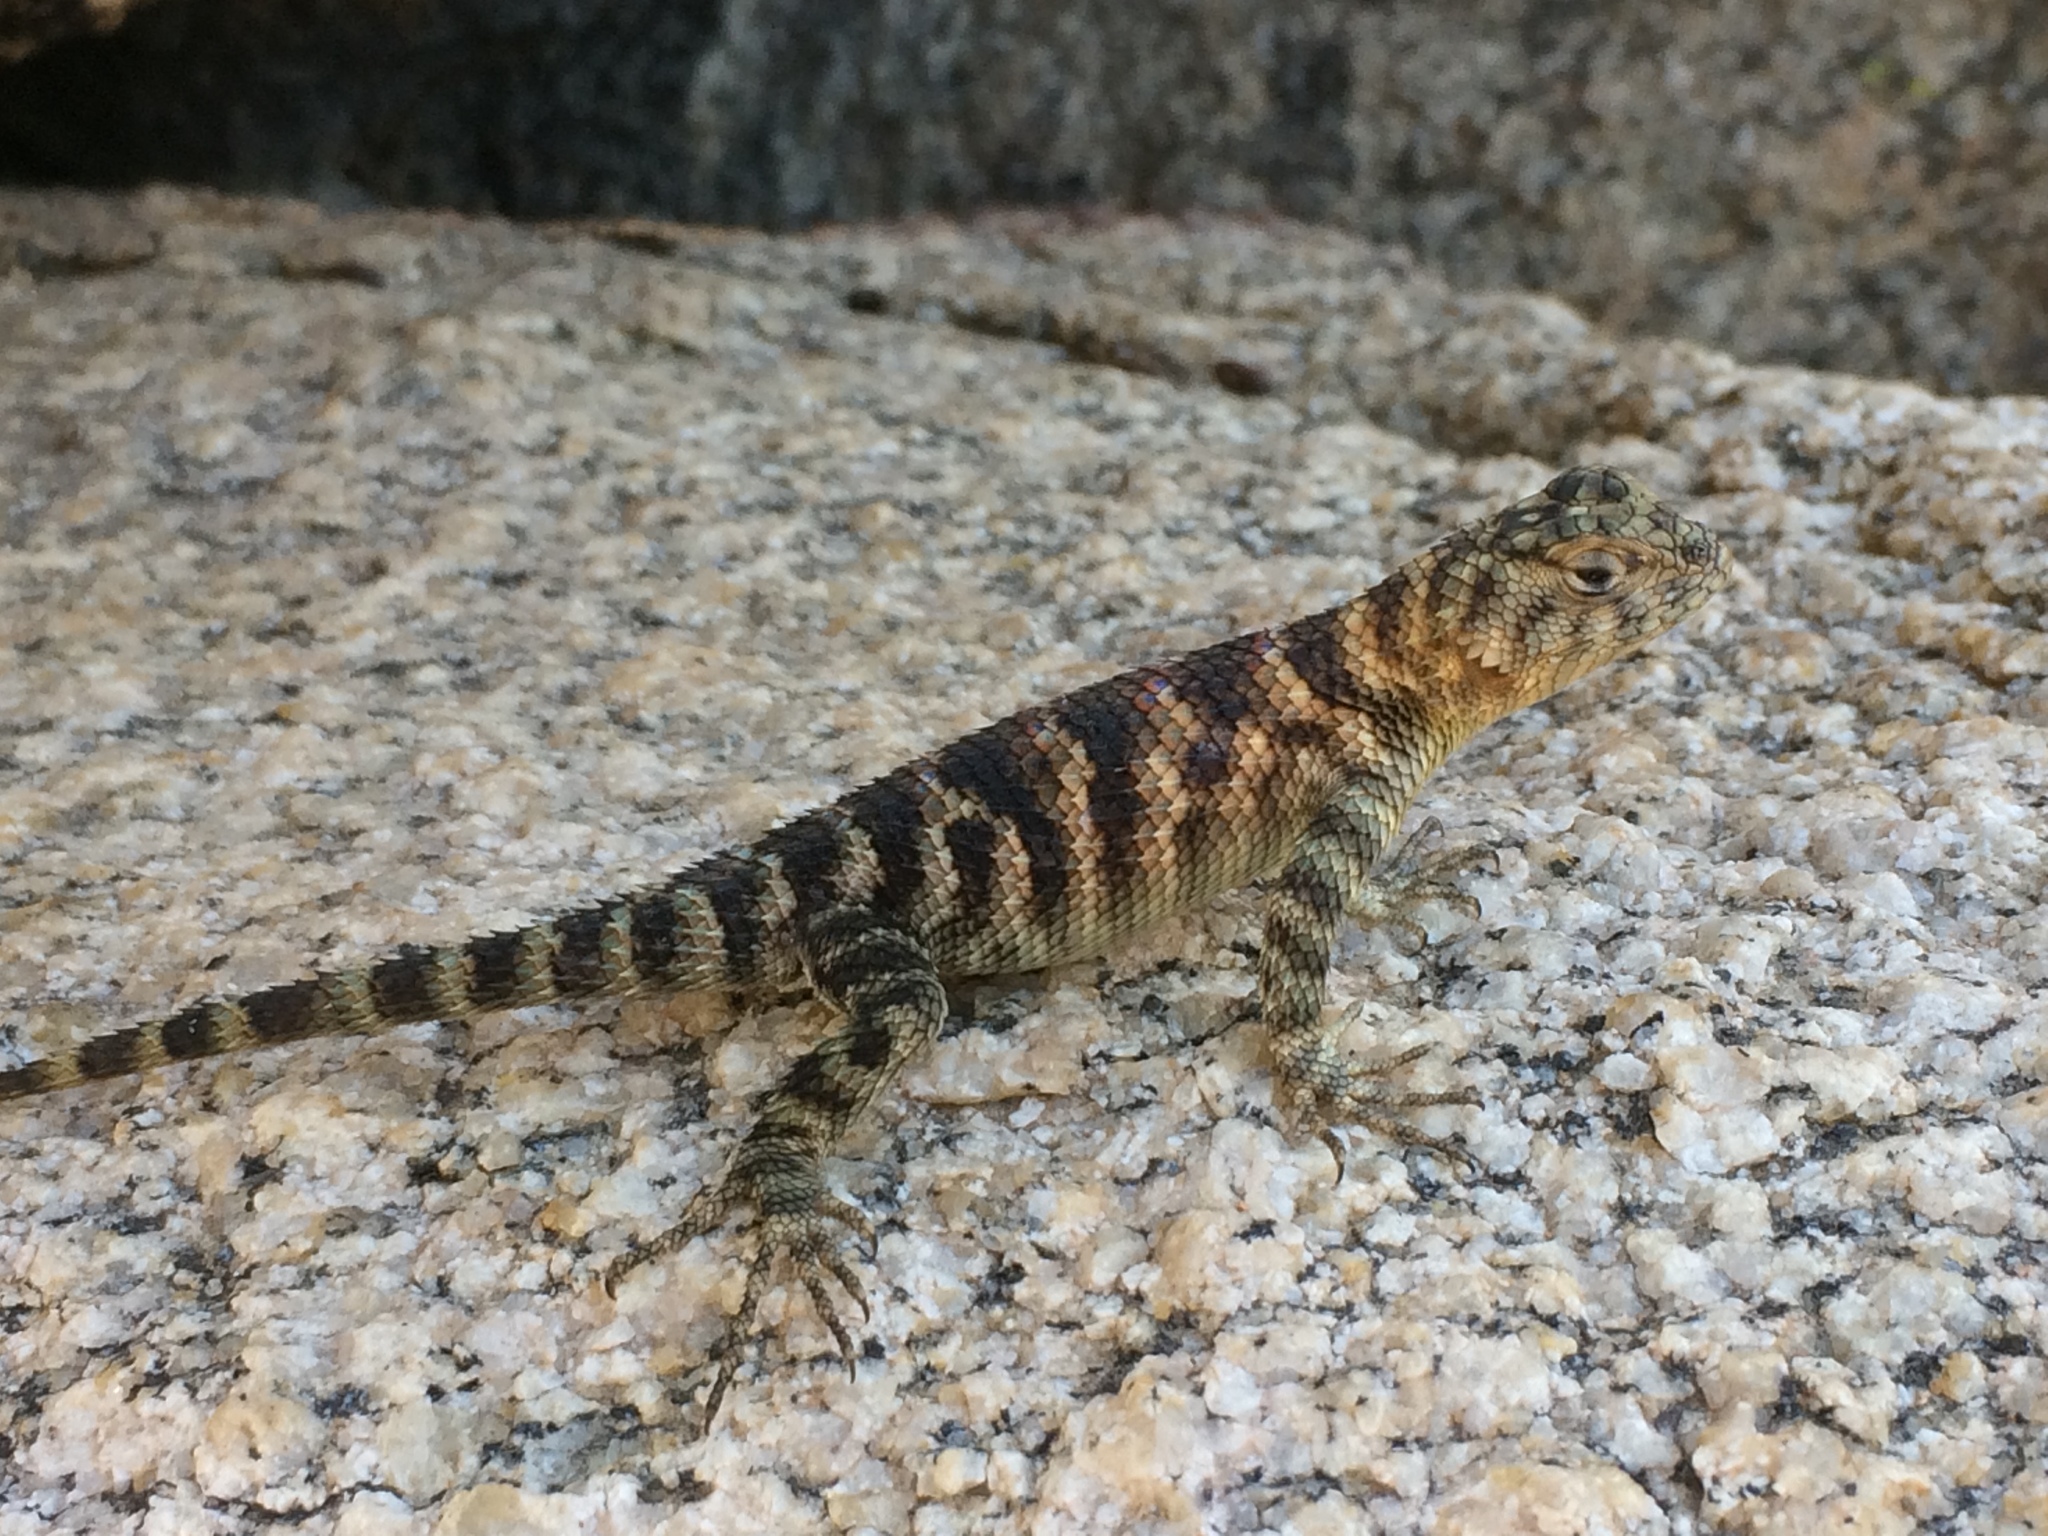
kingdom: Animalia
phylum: Chordata
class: Squamata
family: Phrynosomatidae
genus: Sceloporus
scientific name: Sceloporus orcutti
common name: Granite spiny lizard
